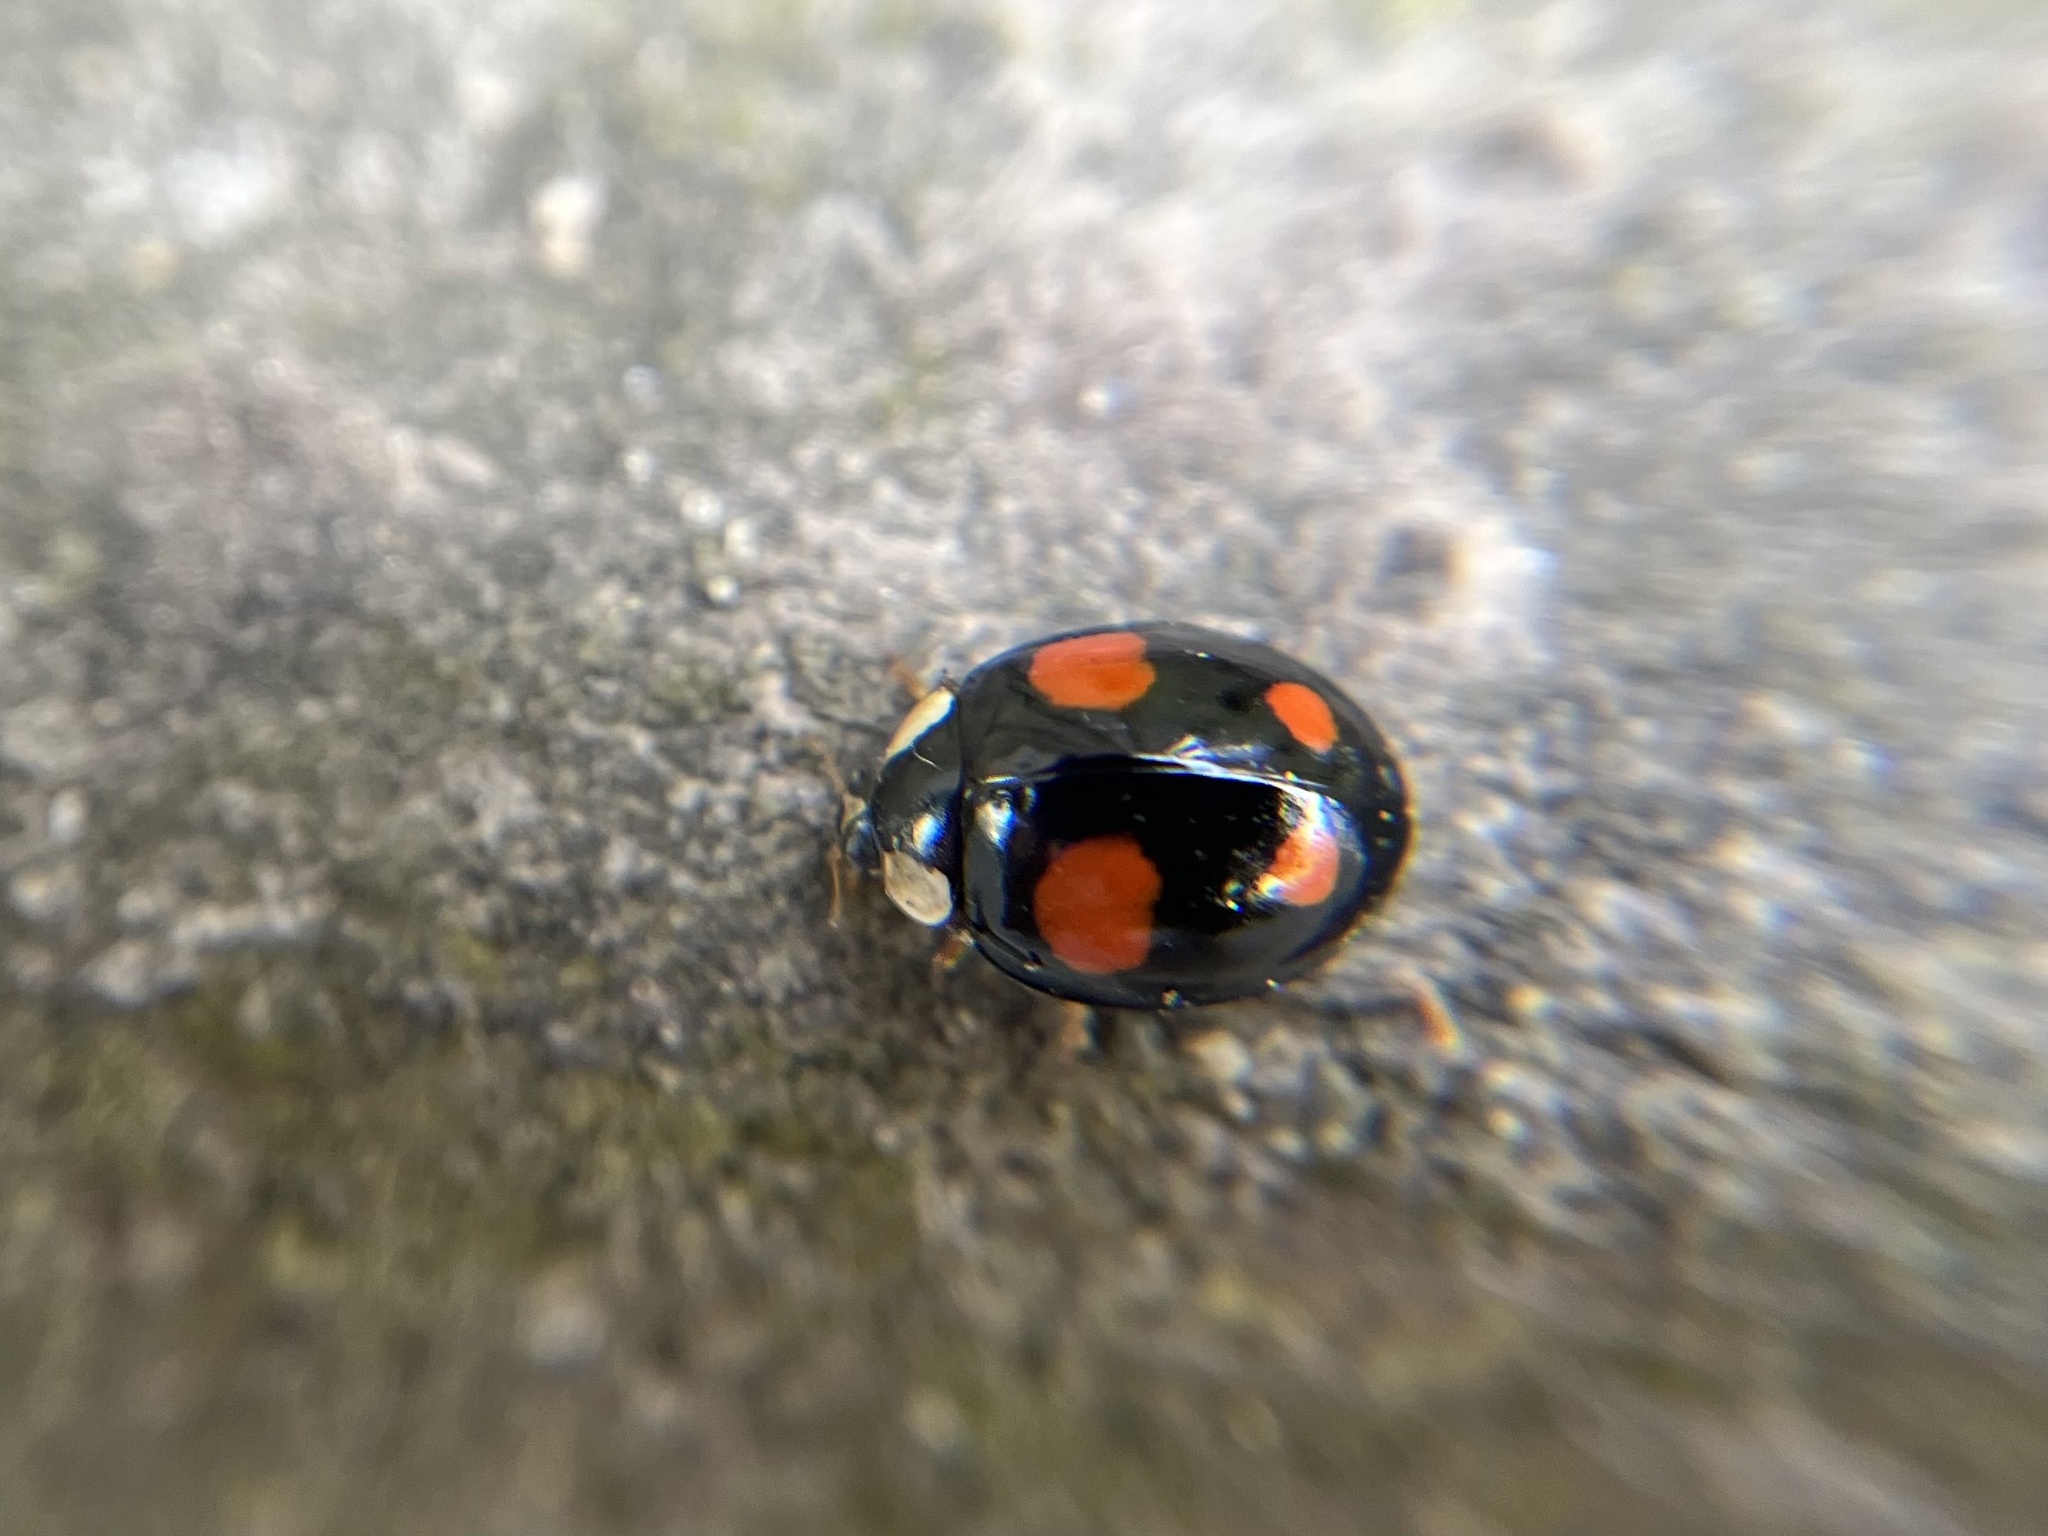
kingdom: Animalia
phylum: Arthropoda
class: Insecta
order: Coleoptera
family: Coccinellidae
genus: Harmonia
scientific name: Harmonia axyridis
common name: Harlequin ladybird
